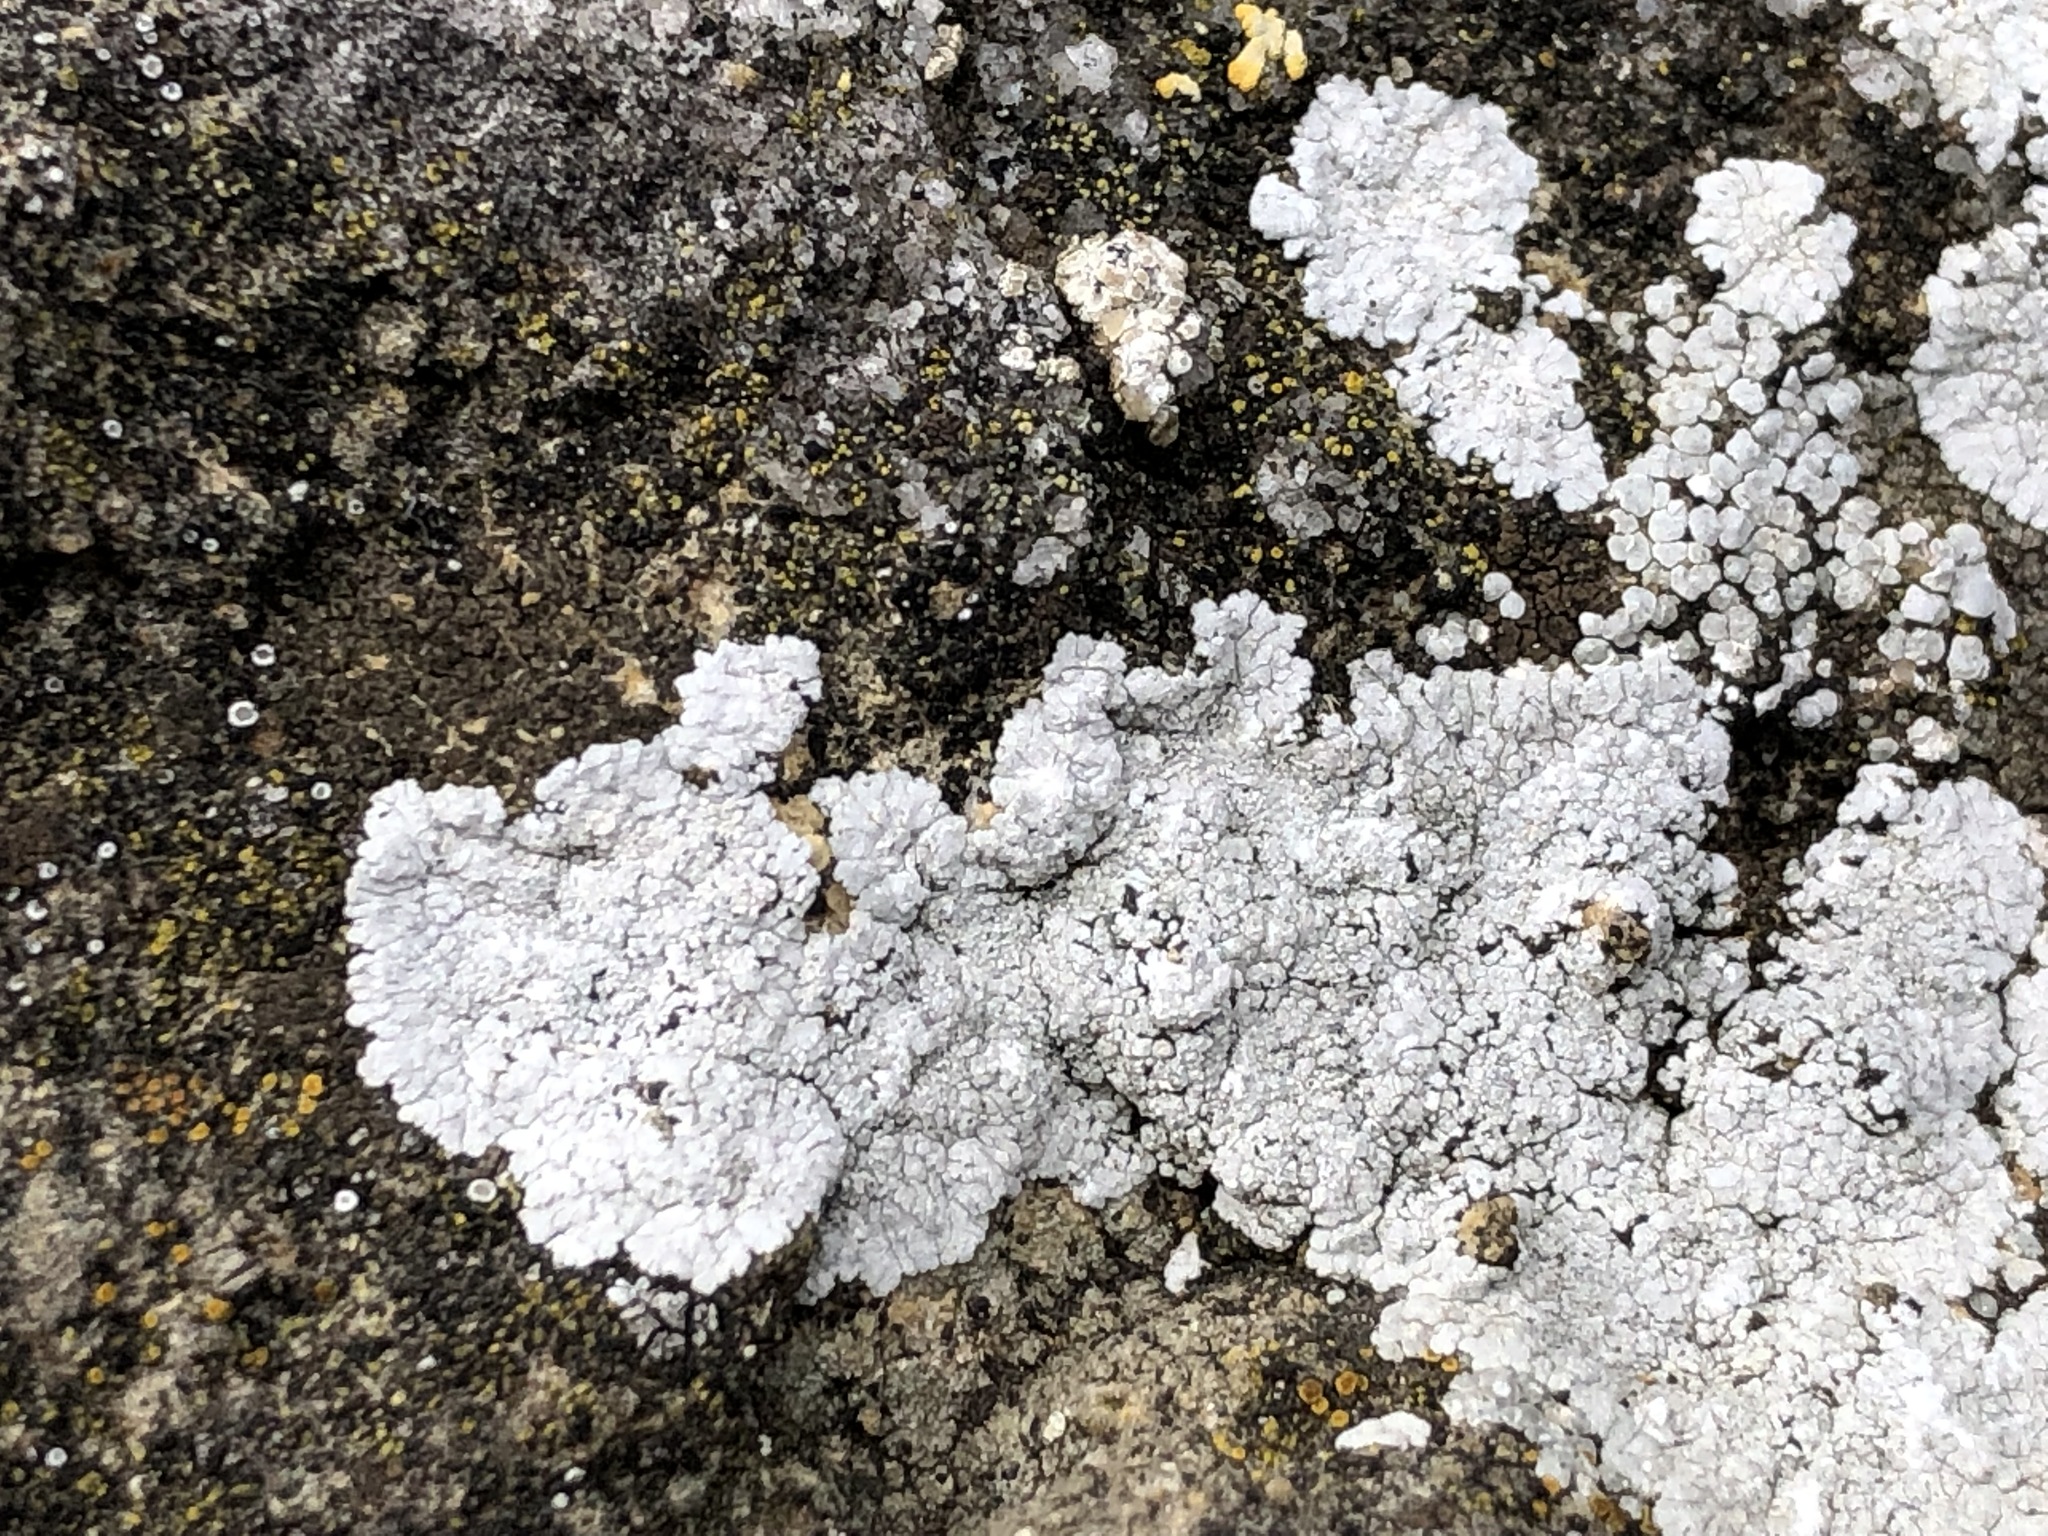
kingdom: Fungi
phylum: Ascomycota
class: Lecanoromycetes
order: Teloschistales
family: Teloschistaceae
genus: Kuettlingeria
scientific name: Kuettlingeria teicholyta
